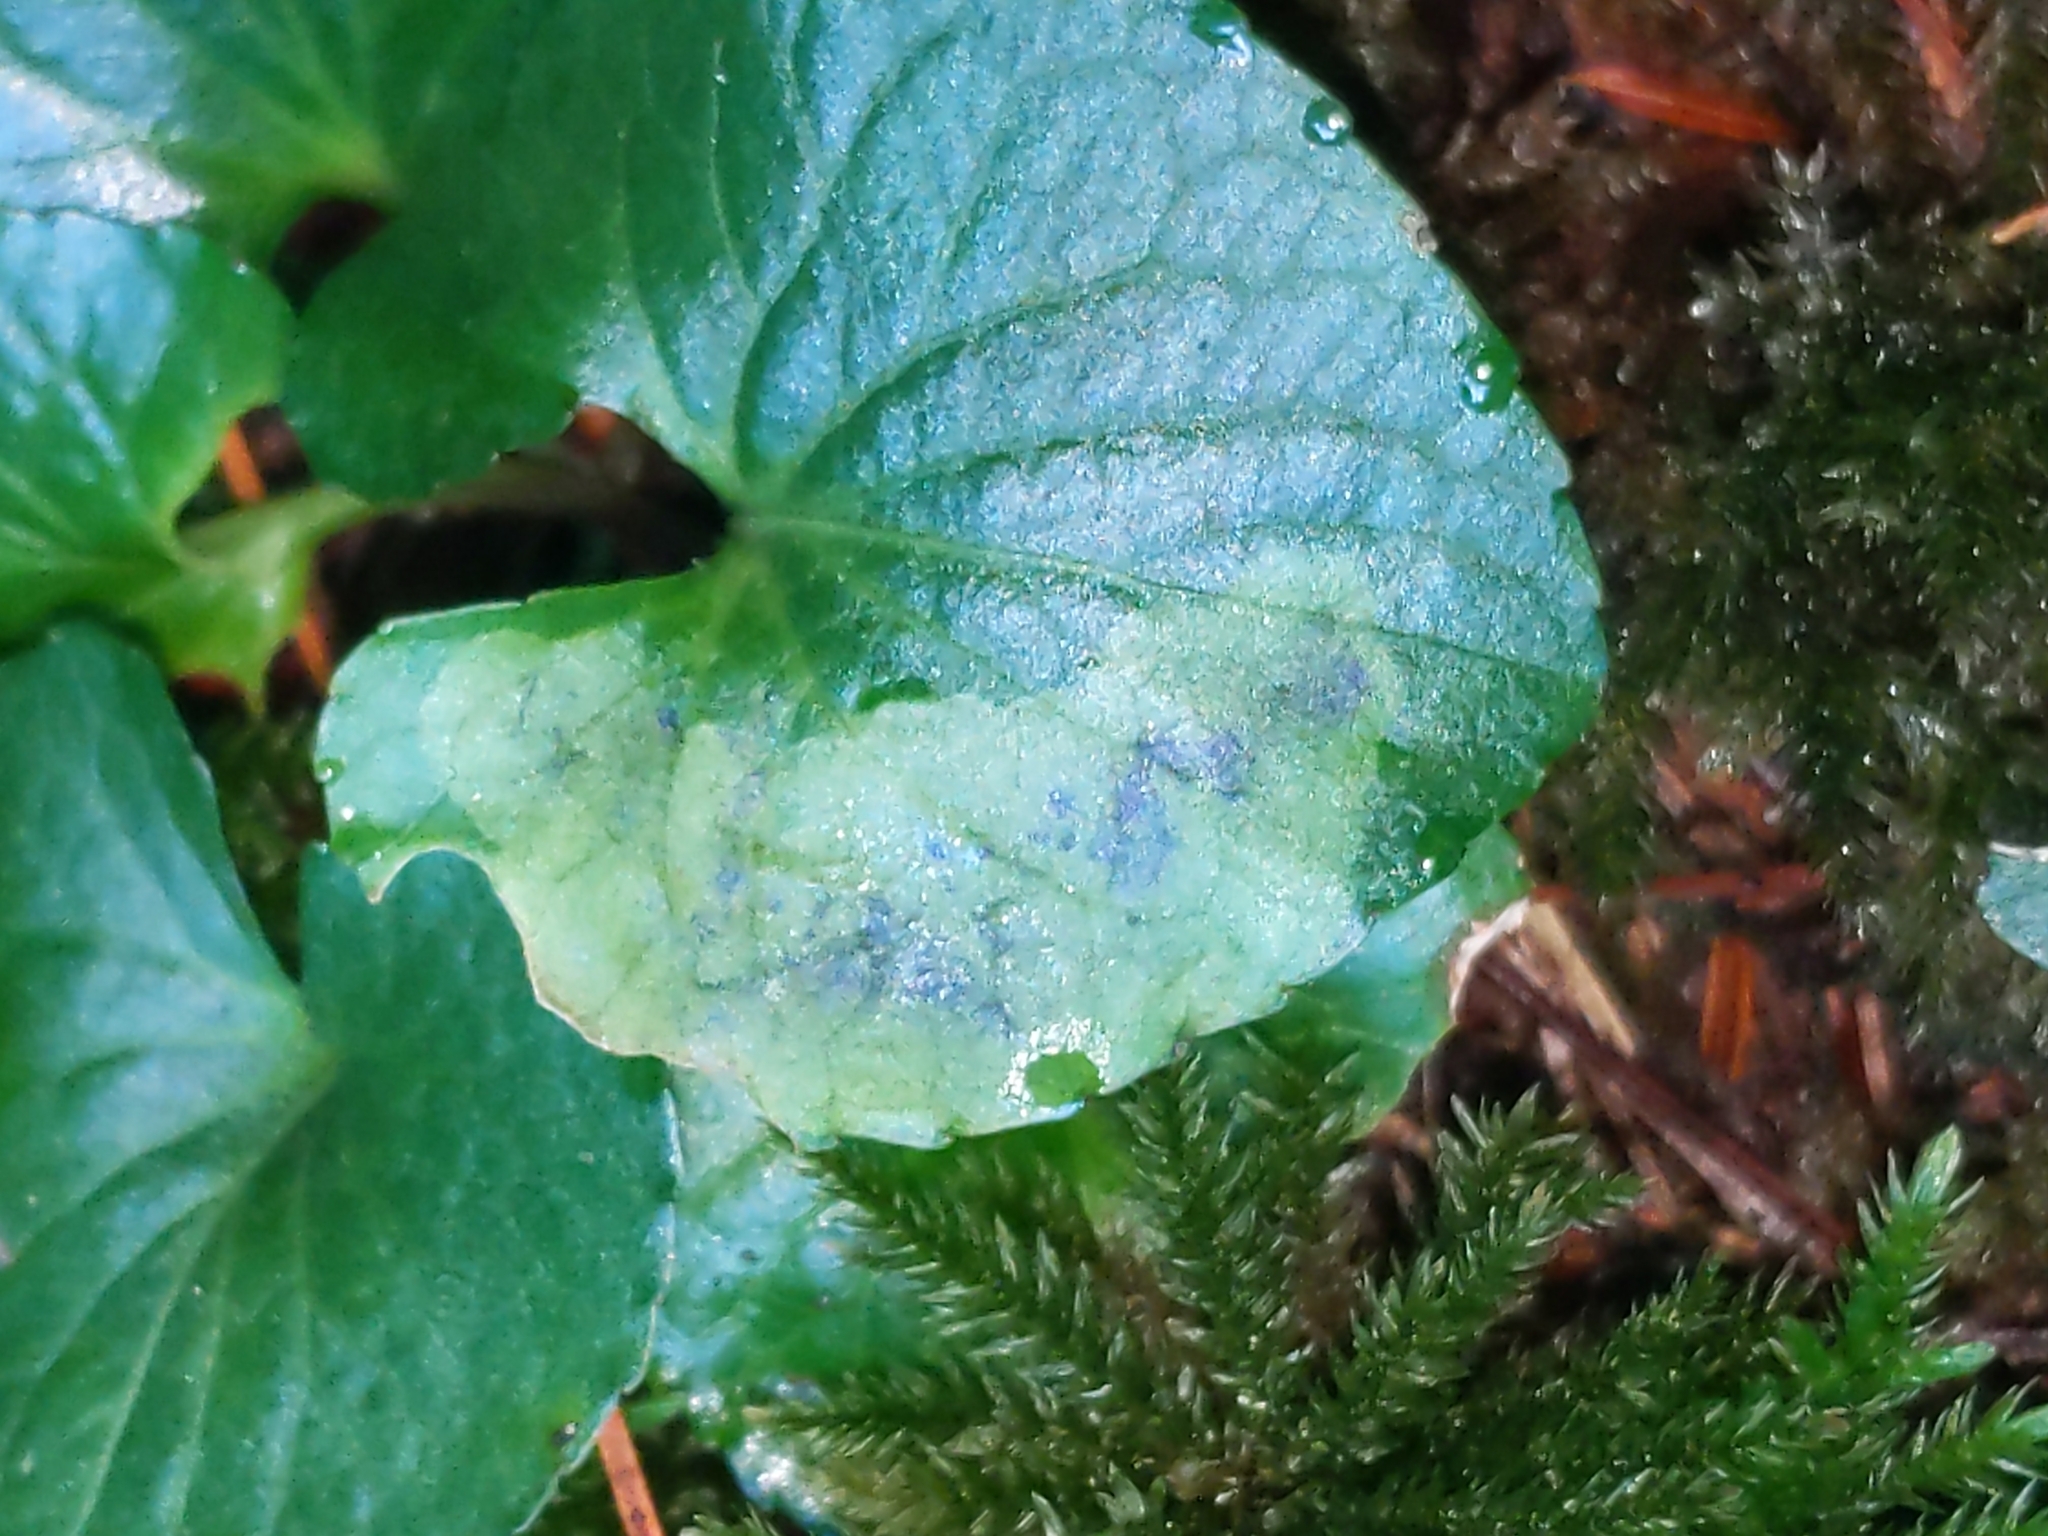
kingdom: Animalia
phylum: Arthropoda
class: Insecta
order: Diptera
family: Agromyzidae
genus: Liriomyza
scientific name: Liriomyza violivora
